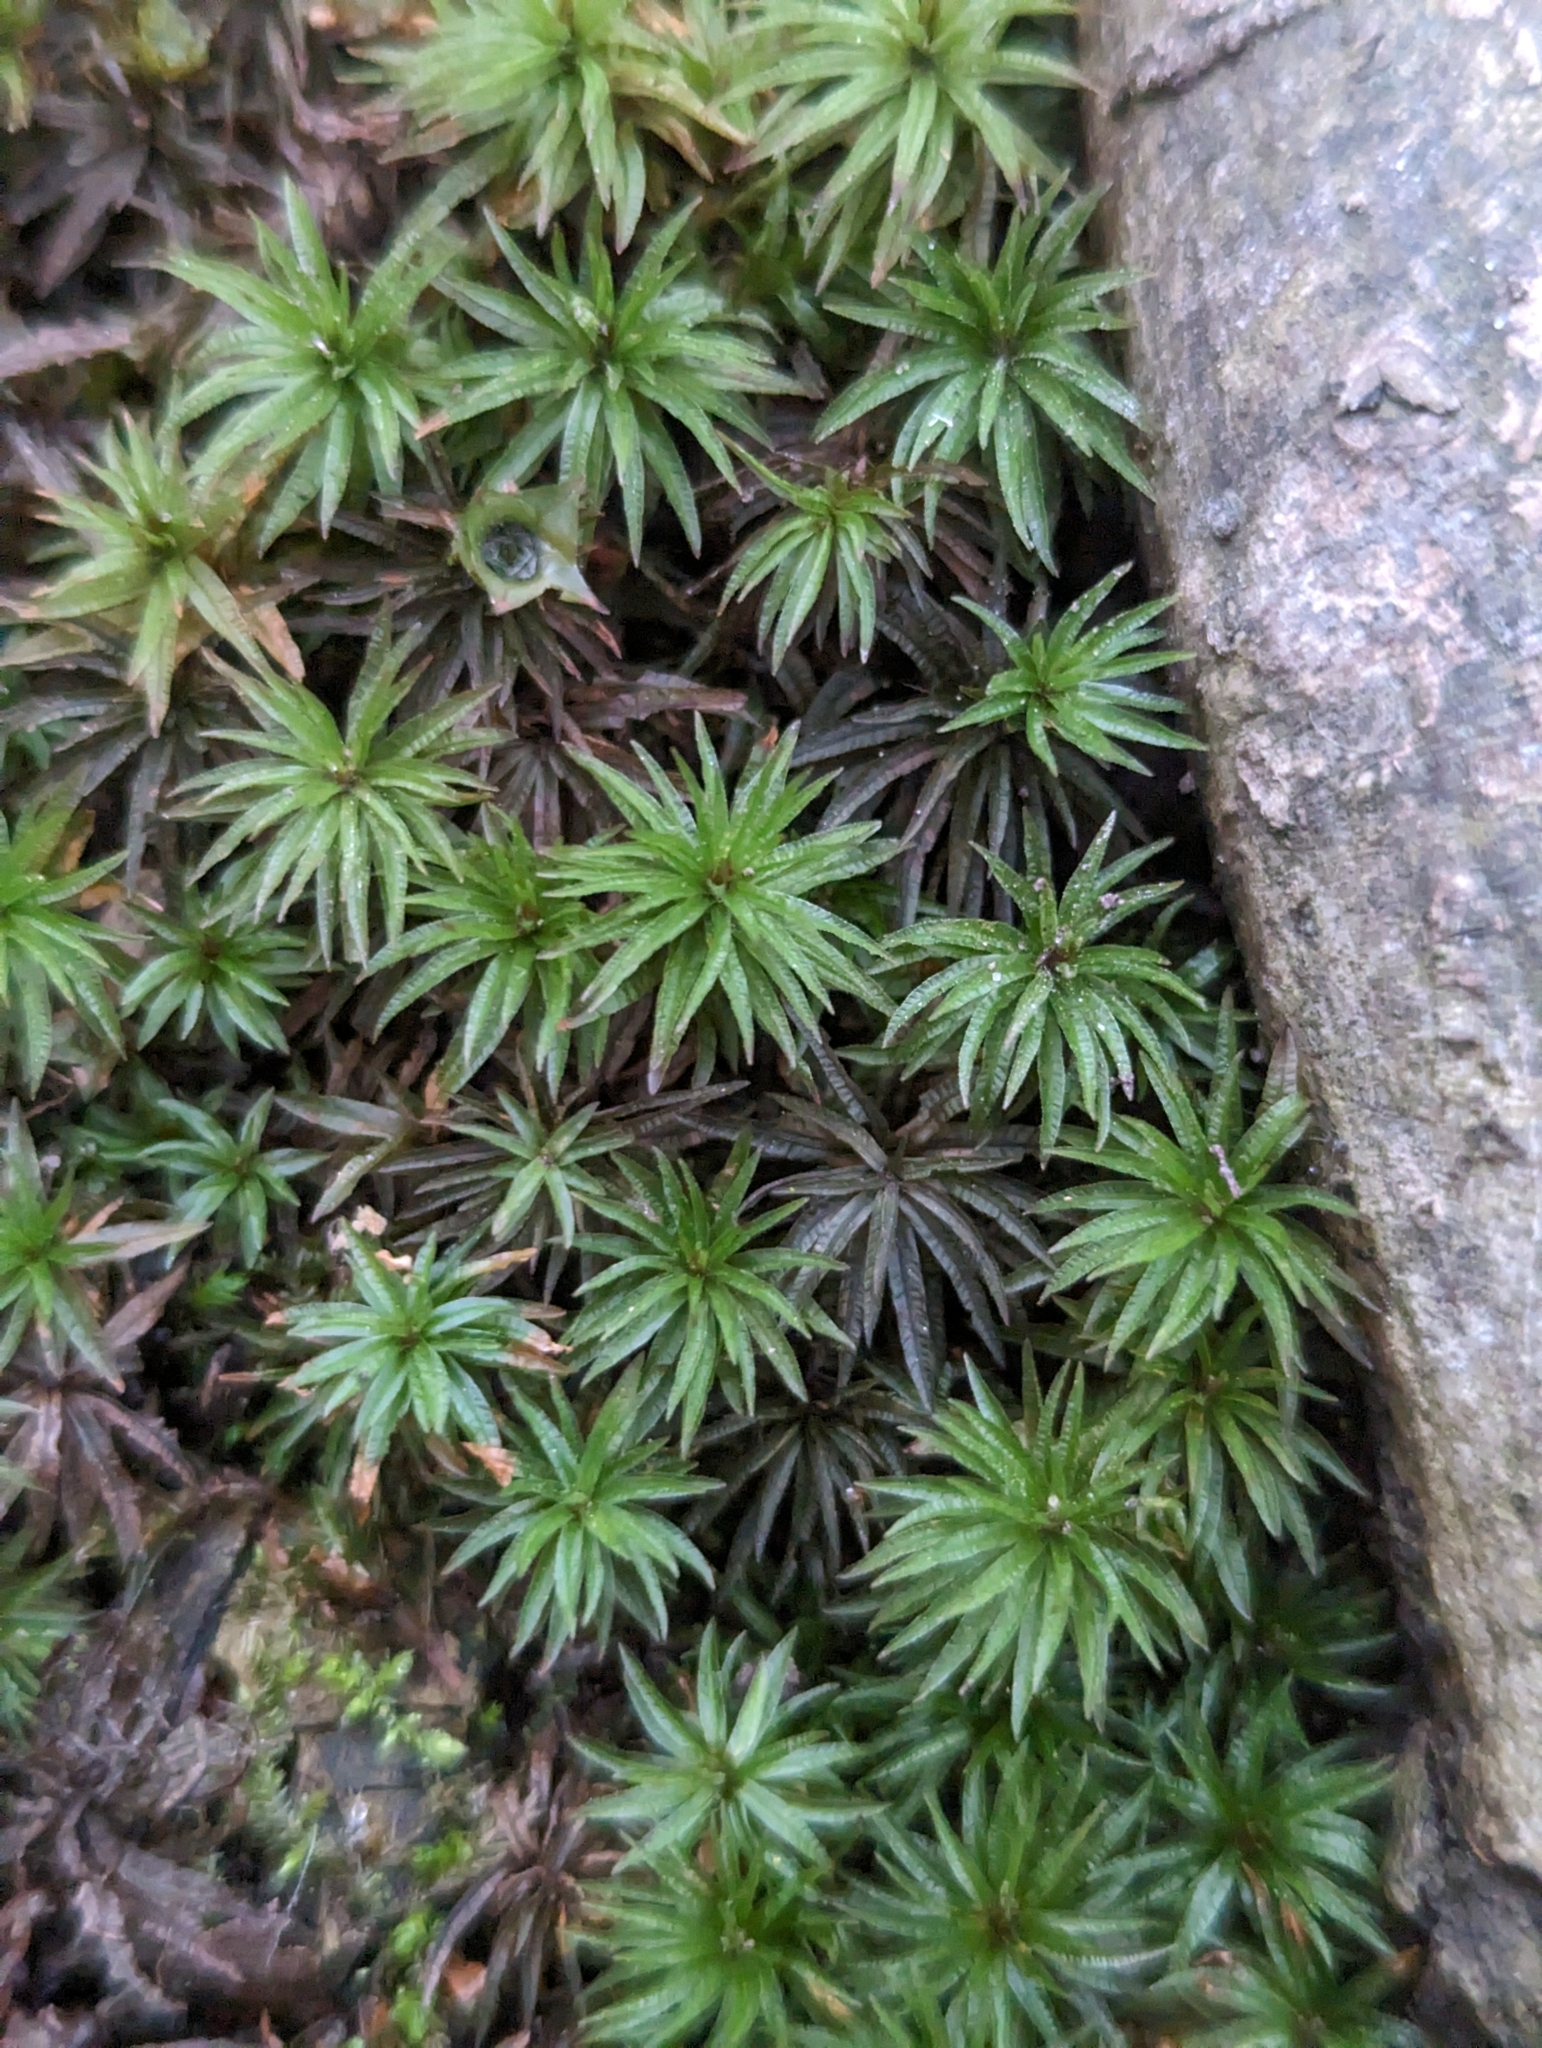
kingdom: Plantae
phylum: Bryophyta
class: Polytrichopsida
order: Polytrichales
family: Polytrichaceae
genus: Atrichum
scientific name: Atrichum undulatum
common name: Common smoothcap
